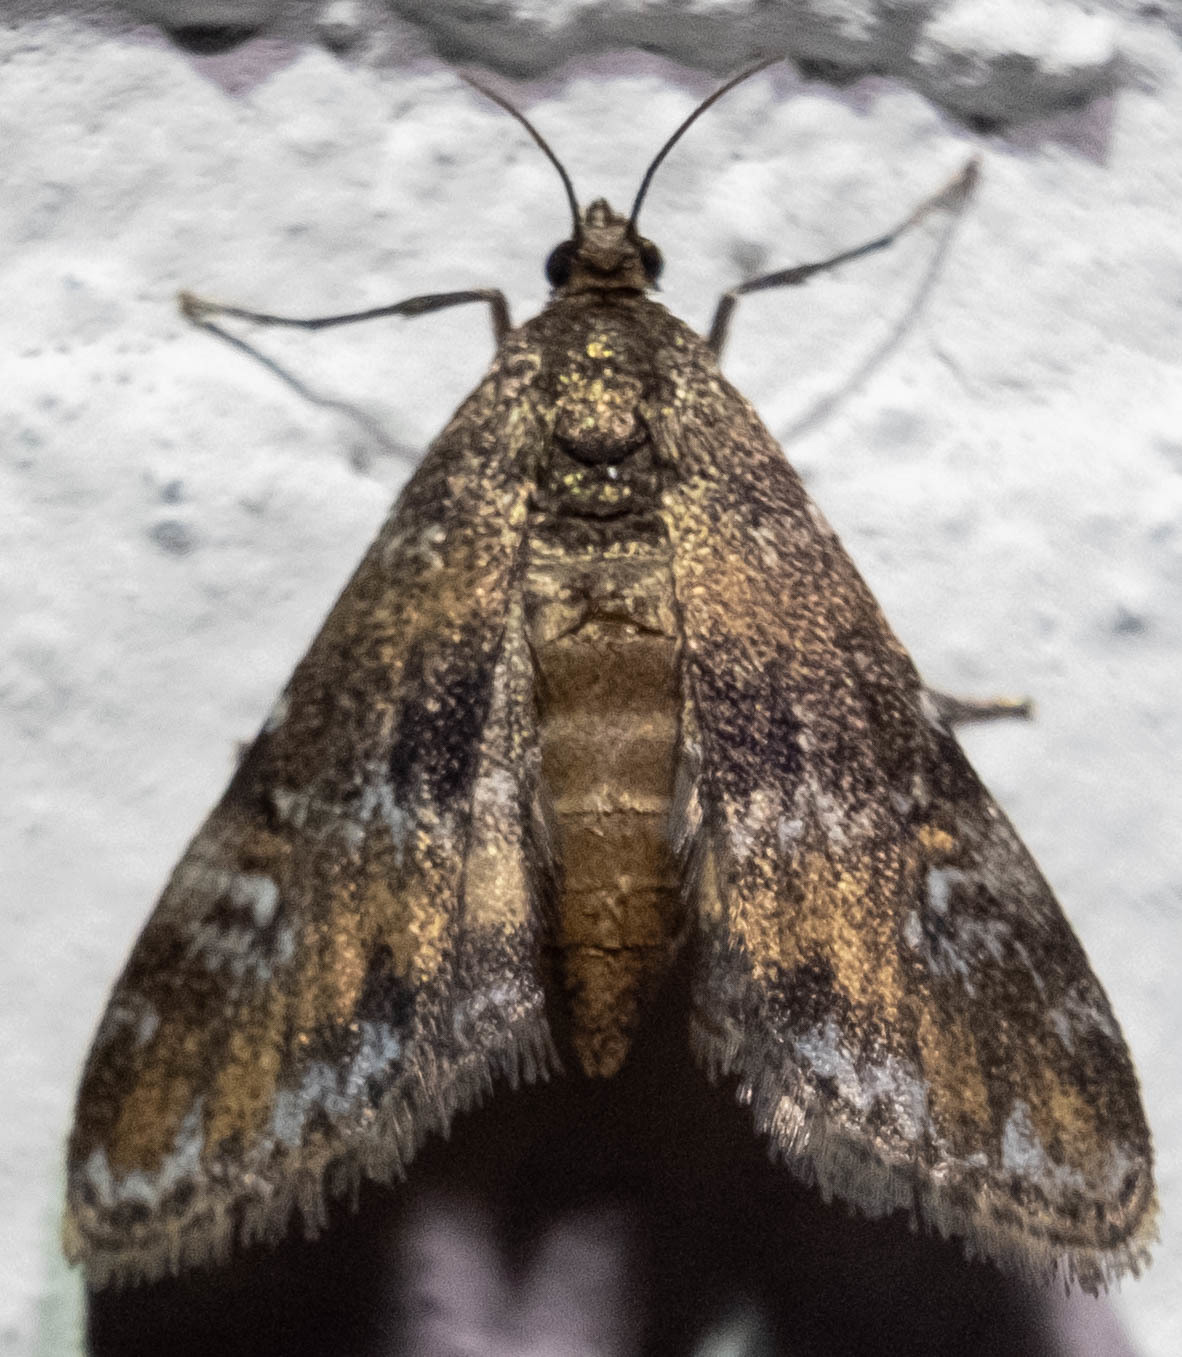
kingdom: Animalia
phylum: Arthropoda
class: Insecta
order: Lepidoptera
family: Crambidae
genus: Elophila
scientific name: Elophila obliteralis
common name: Waterlily leafcutter moth
